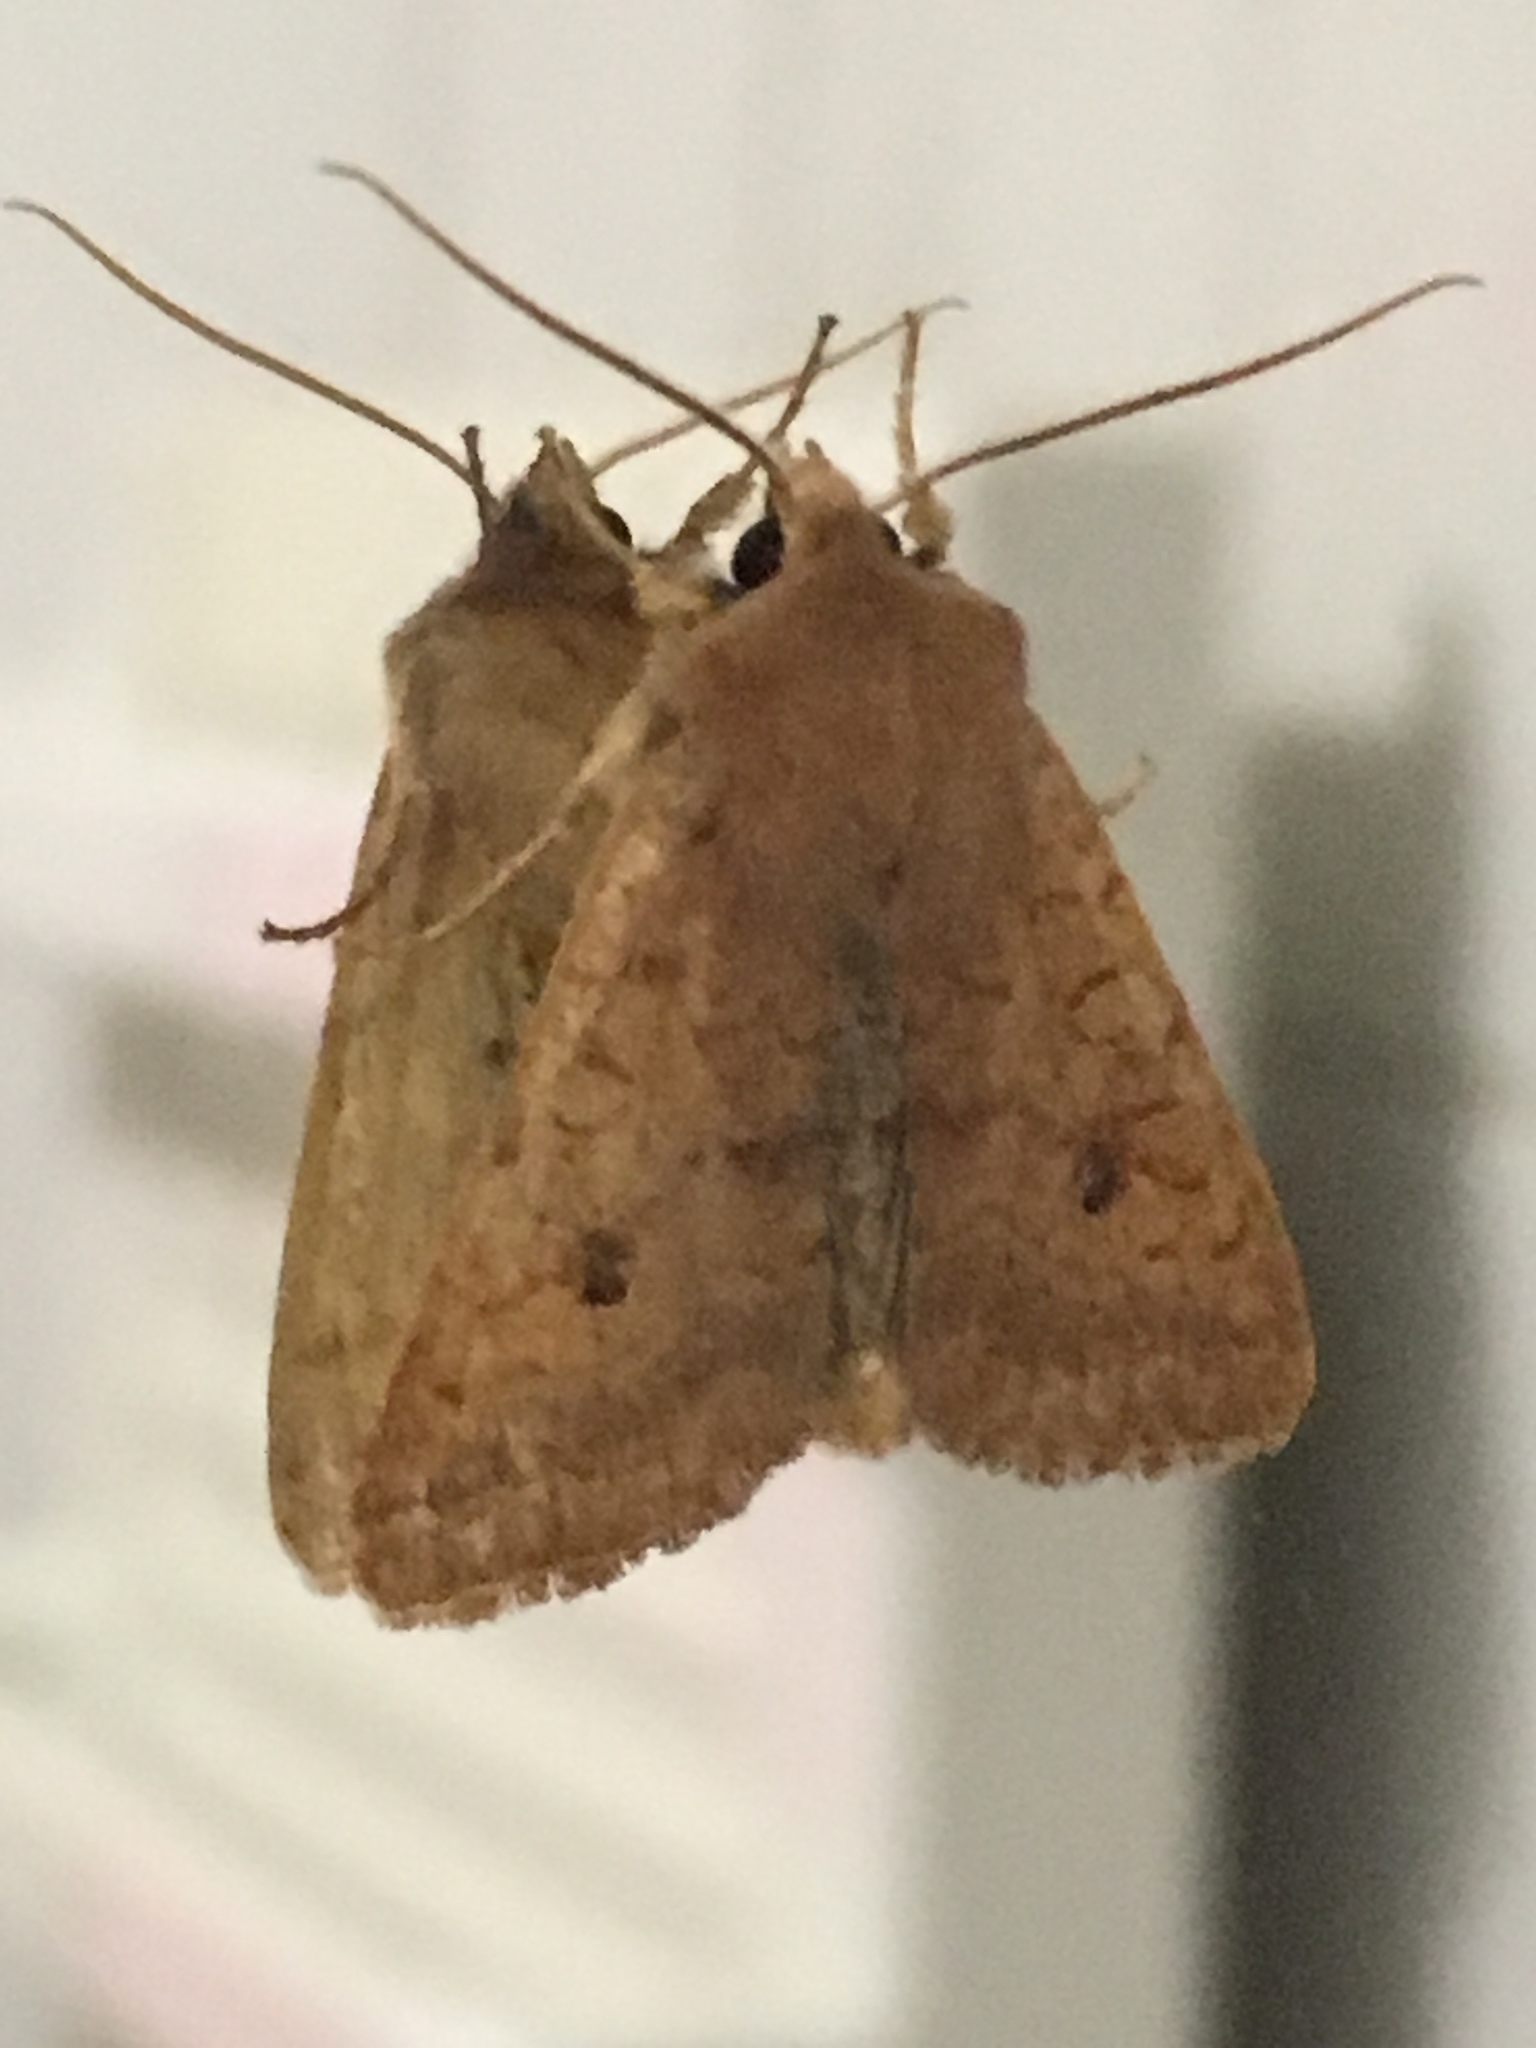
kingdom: Animalia
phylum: Arthropoda
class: Insecta
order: Lepidoptera
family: Noctuidae
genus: Sunira
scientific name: Sunira circellaris
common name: Brick
